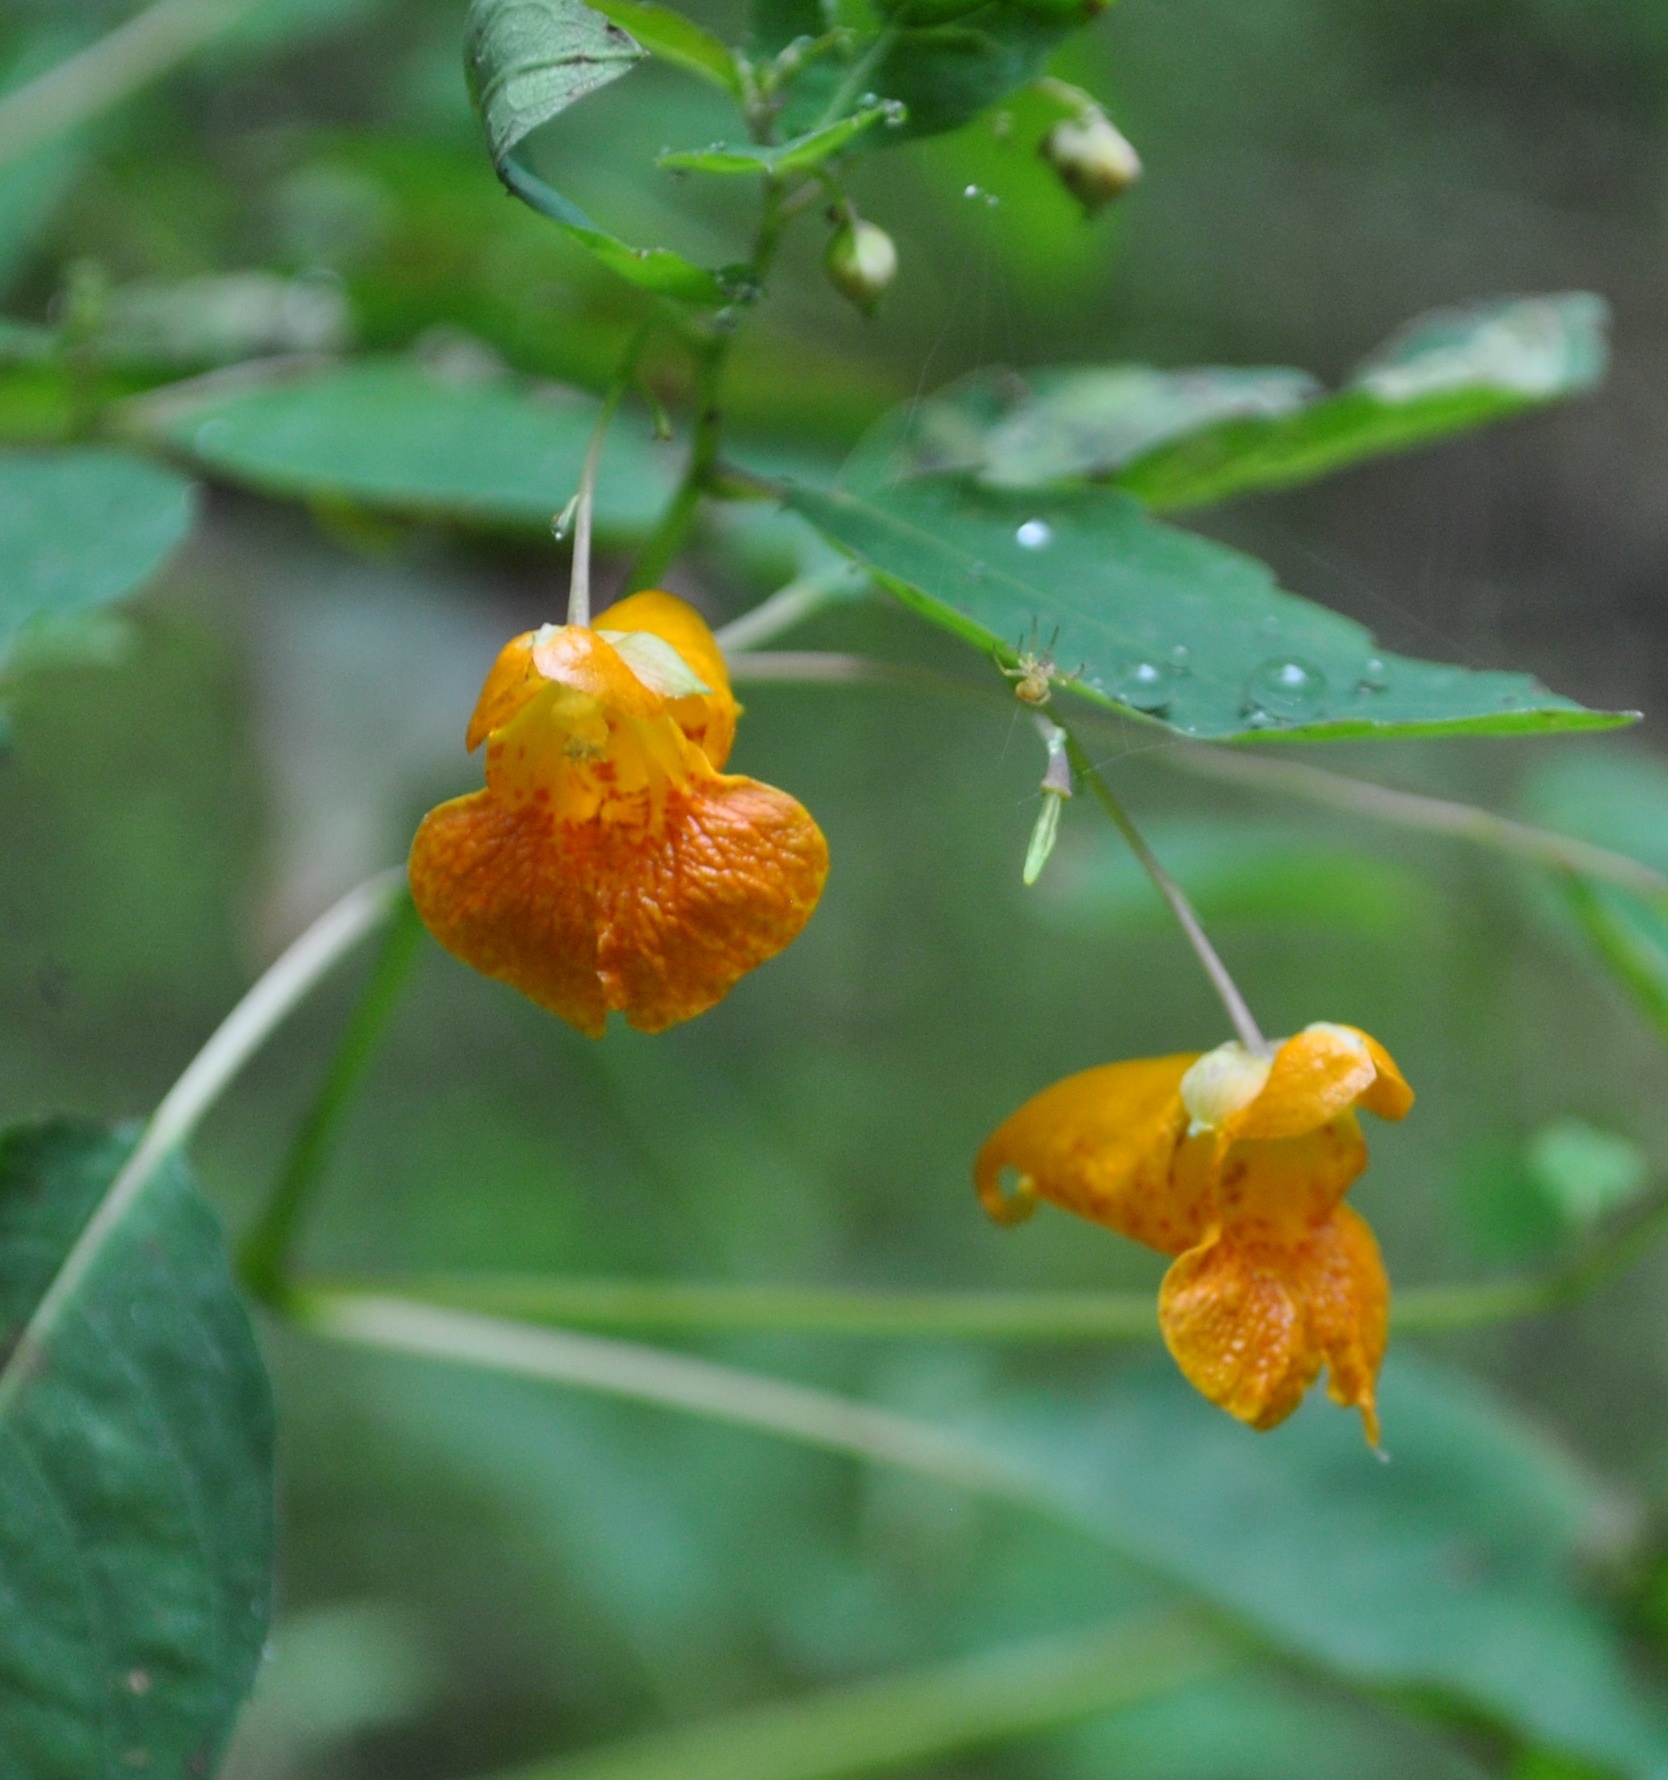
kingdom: Plantae
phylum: Tracheophyta
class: Magnoliopsida
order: Ericales
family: Balsaminaceae
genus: Impatiens
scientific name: Impatiens capensis
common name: Orange balsam
